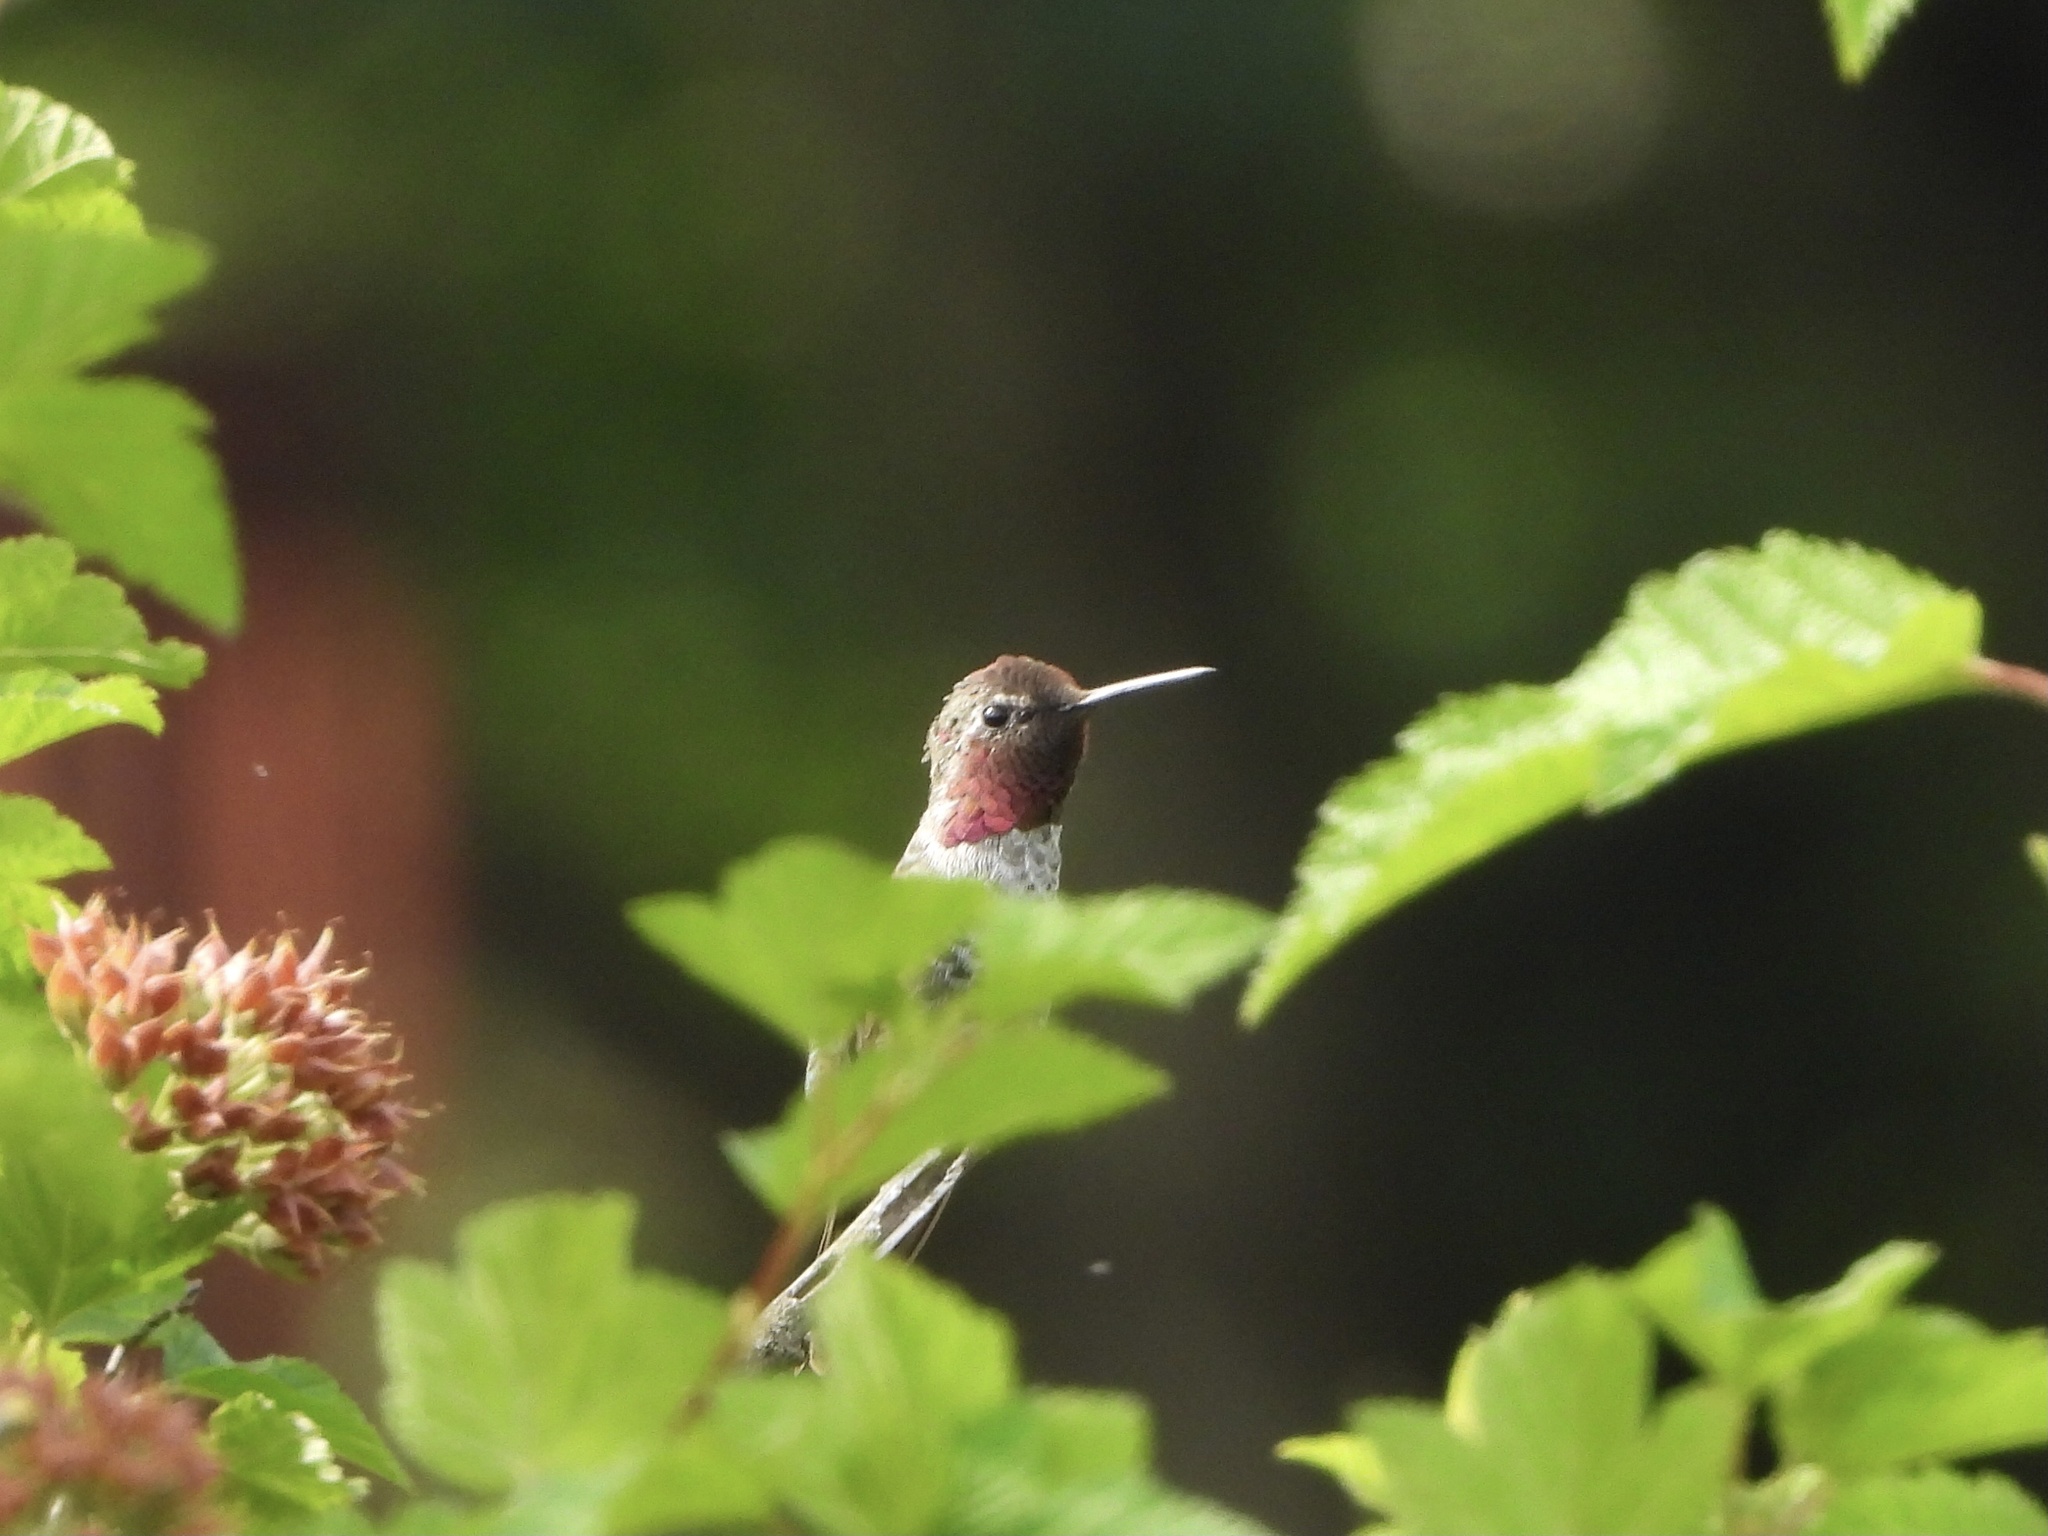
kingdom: Animalia
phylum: Chordata
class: Aves
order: Apodiformes
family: Trochilidae
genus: Calypte
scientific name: Calypte anna
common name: Anna's hummingbird
